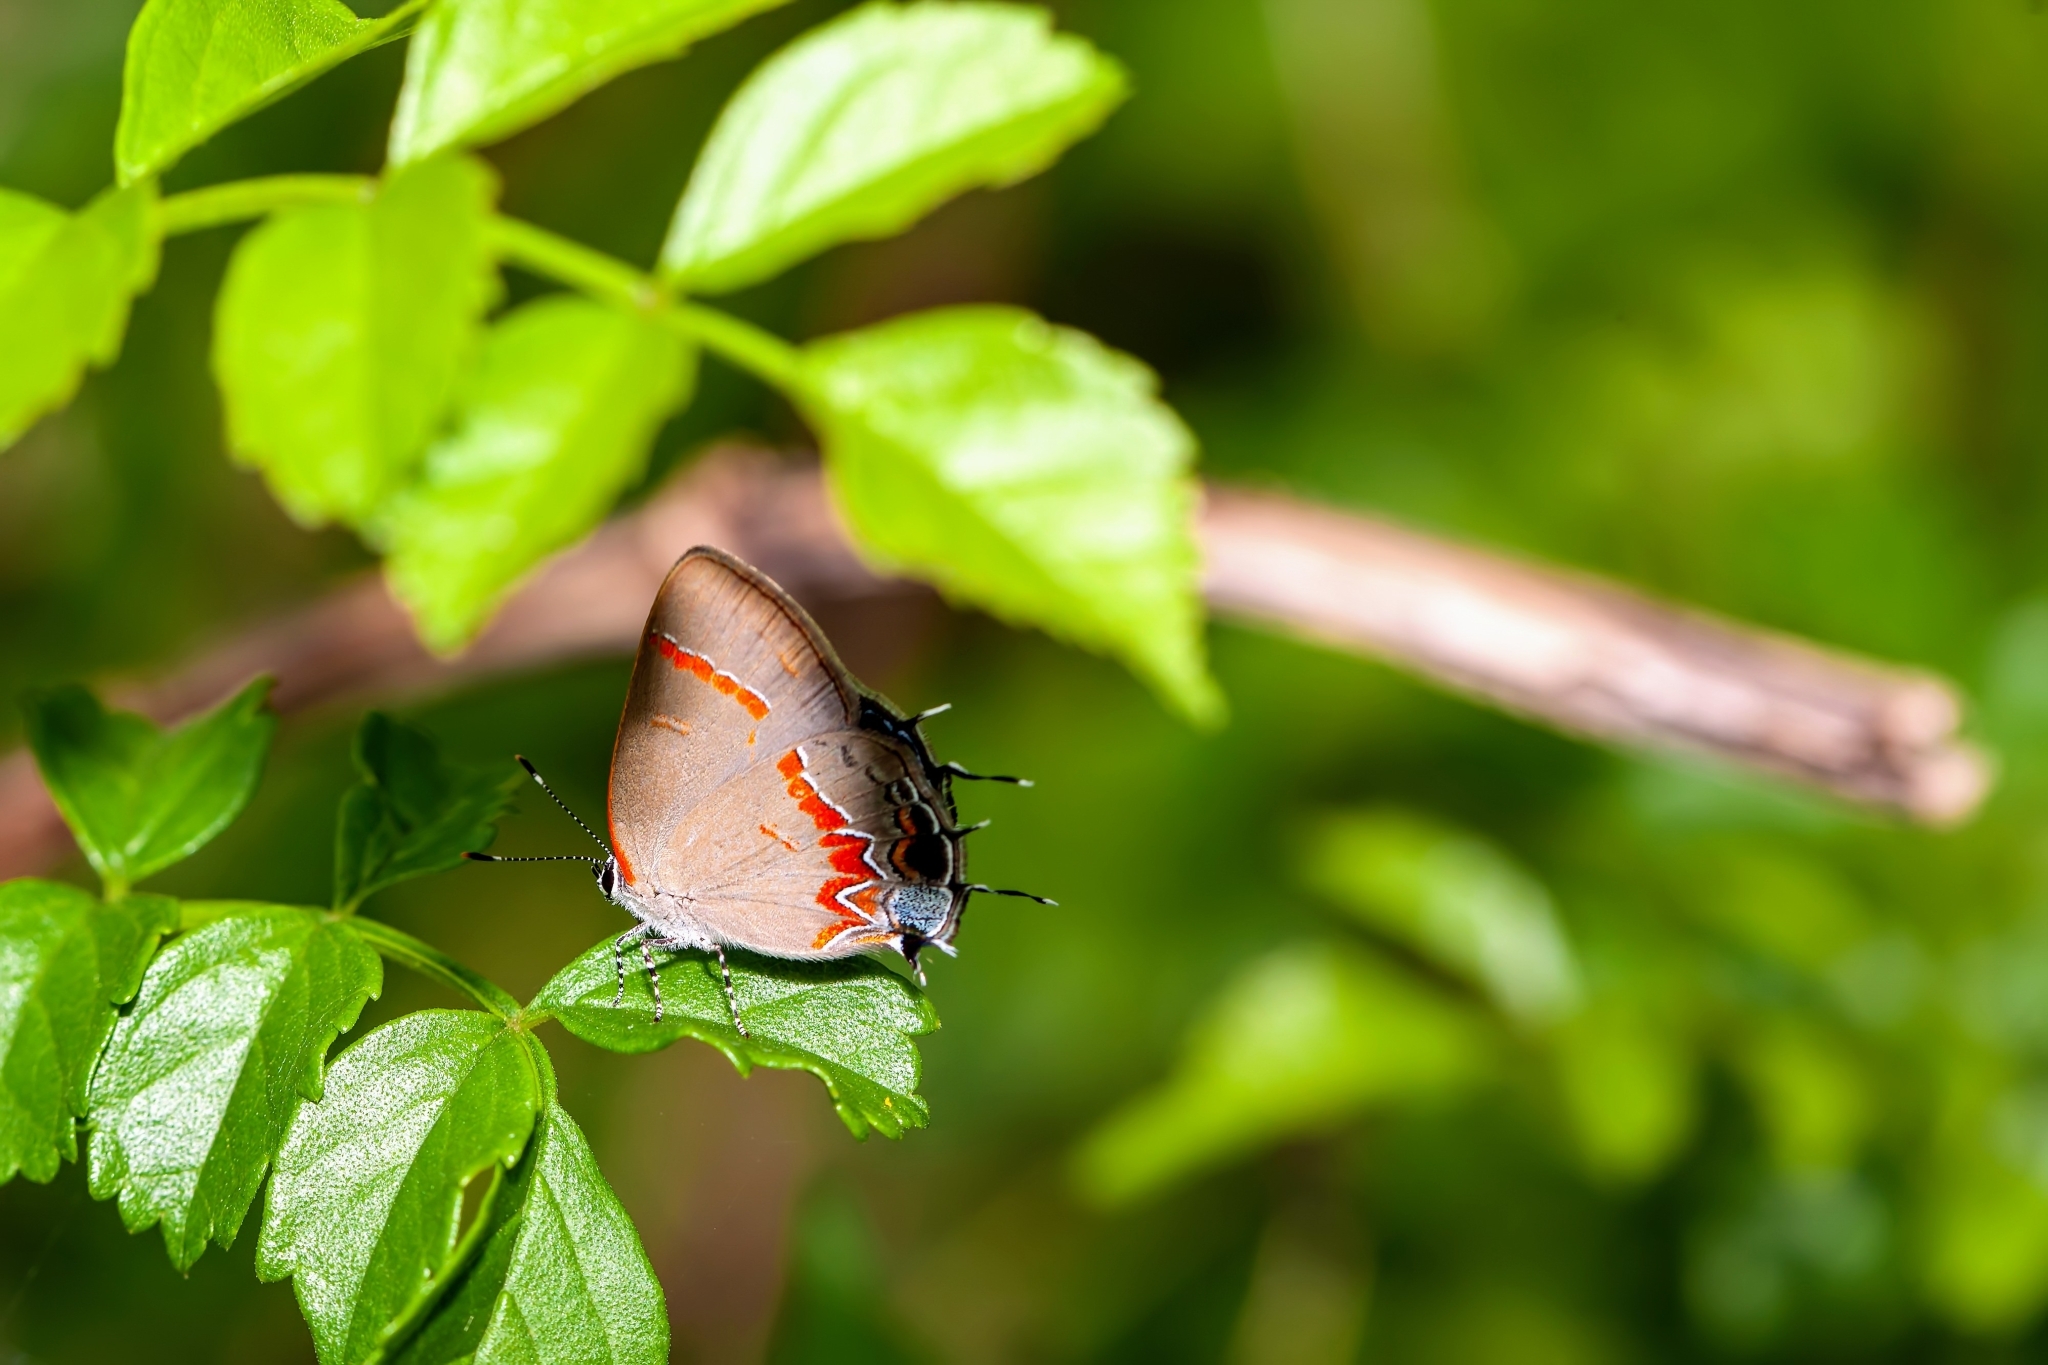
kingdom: Animalia
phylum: Arthropoda
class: Insecta
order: Lepidoptera
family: Lycaenidae
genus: Calycopis
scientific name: Calycopis cecrops
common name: Red-banded hairstreak
